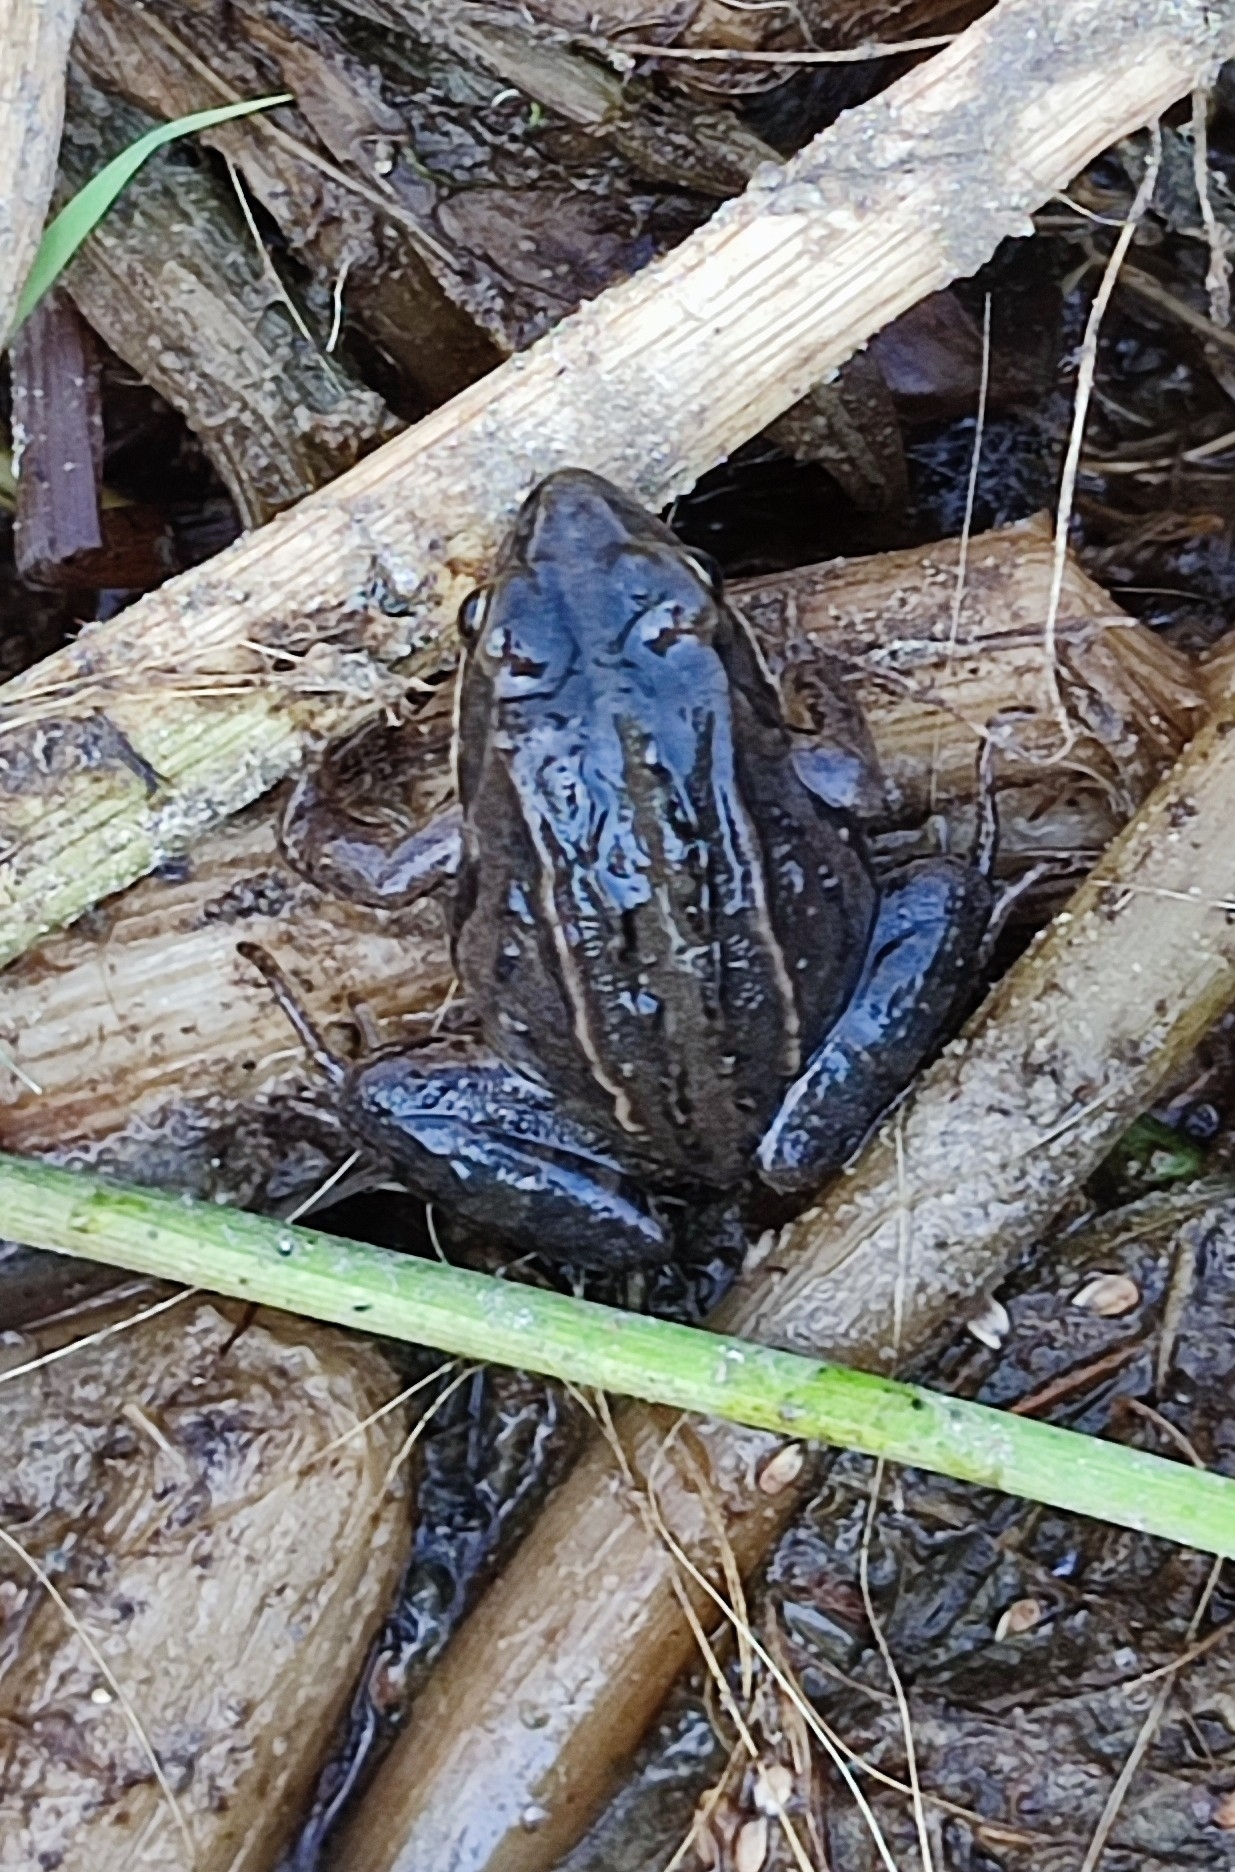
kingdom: Animalia
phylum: Chordata
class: Amphibia
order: Anura
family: Ranidae
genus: Rana
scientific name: Rana arvalis
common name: Moor frog
